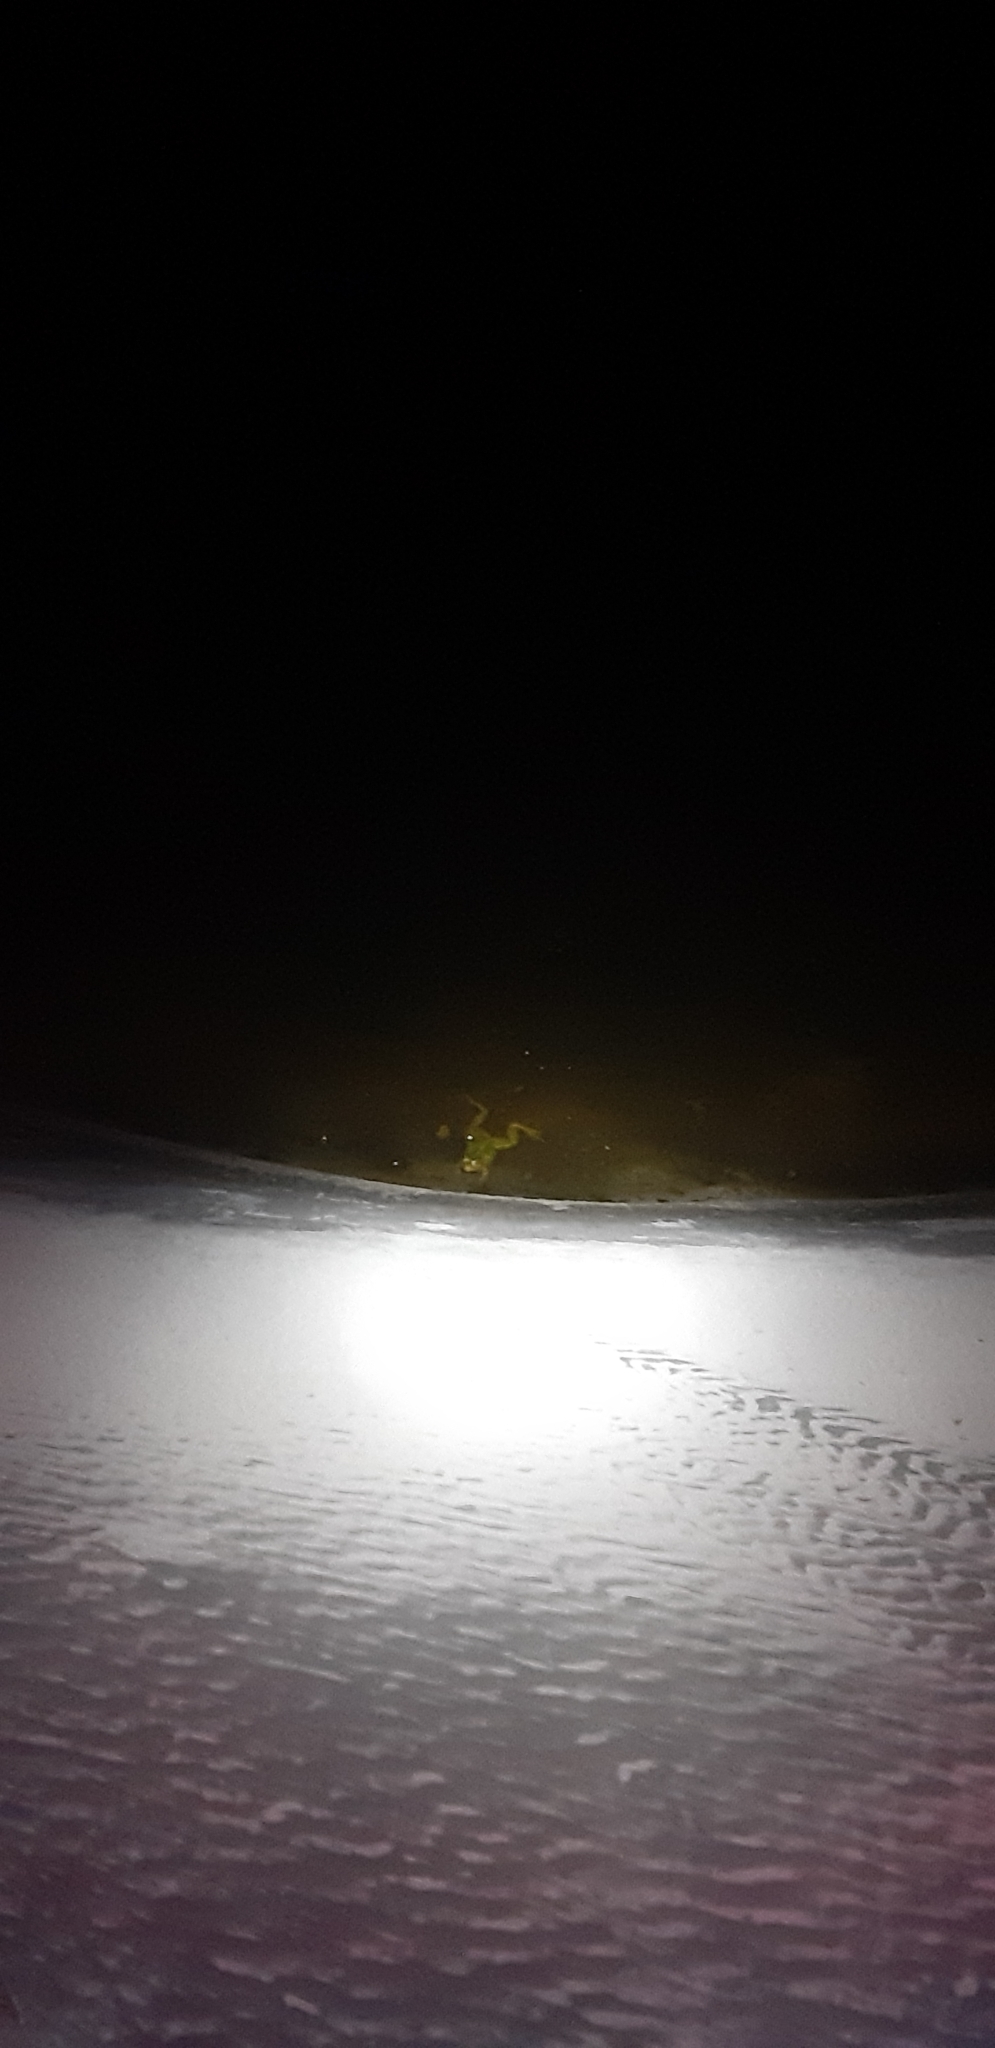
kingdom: Animalia
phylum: Chordata
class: Amphibia
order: Anura
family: Ranidae
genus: Pelophylax
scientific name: Pelophylax
